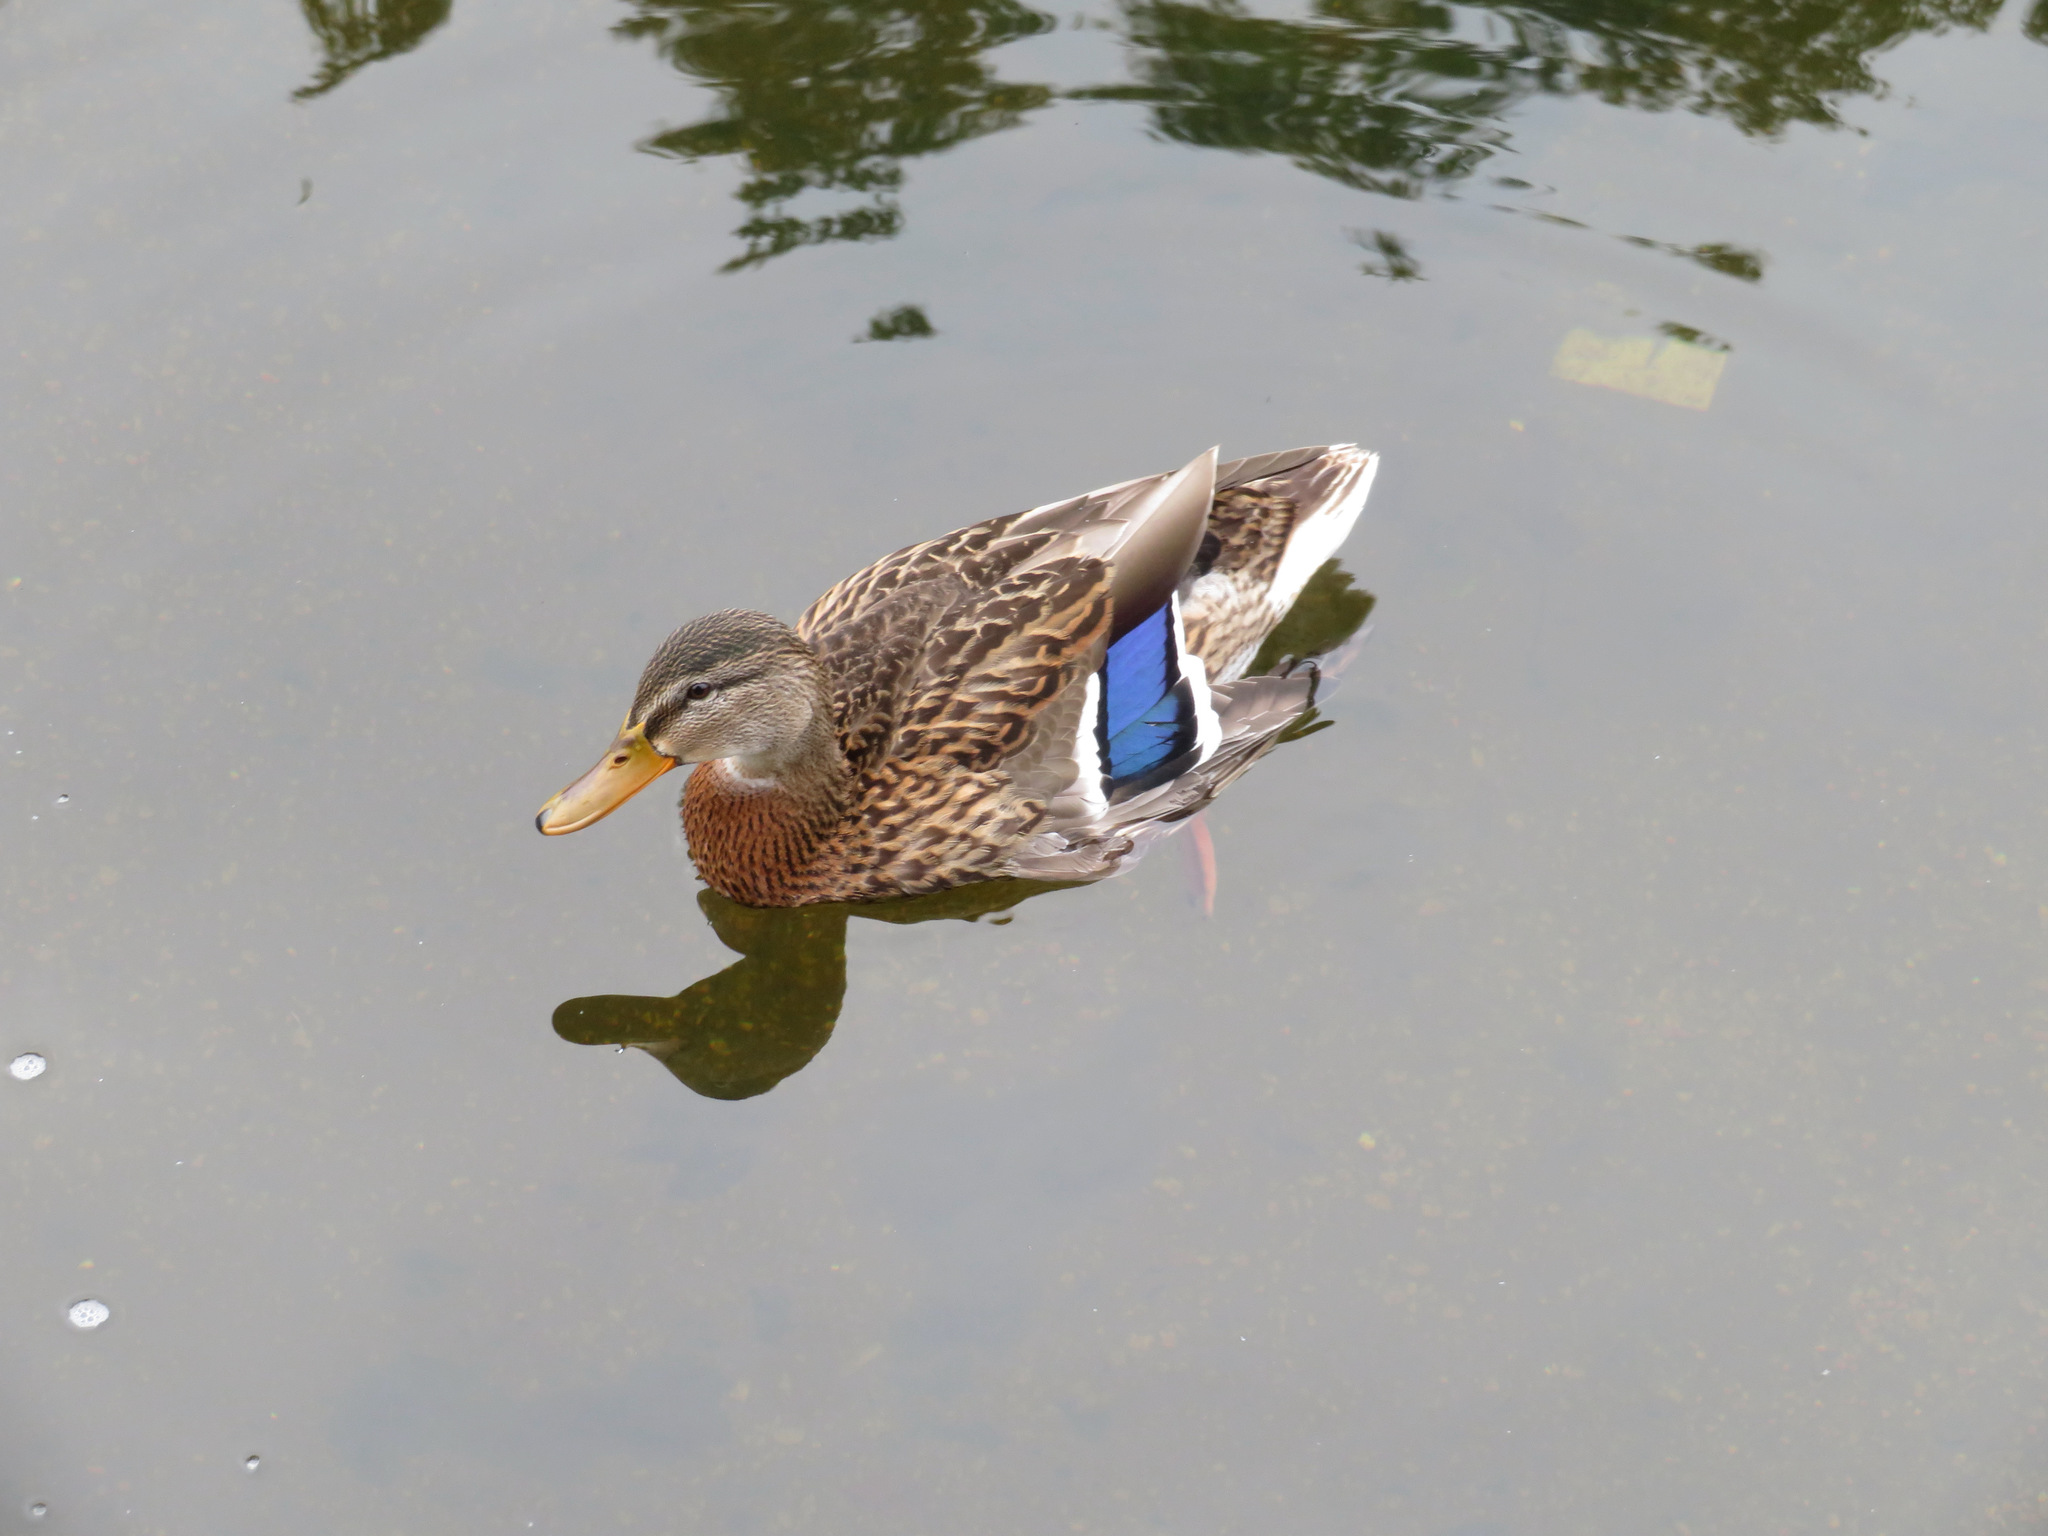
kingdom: Animalia
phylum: Chordata
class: Aves
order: Anseriformes
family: Anatidae
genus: Anas
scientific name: Anas platyrhynchos
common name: Mallard
